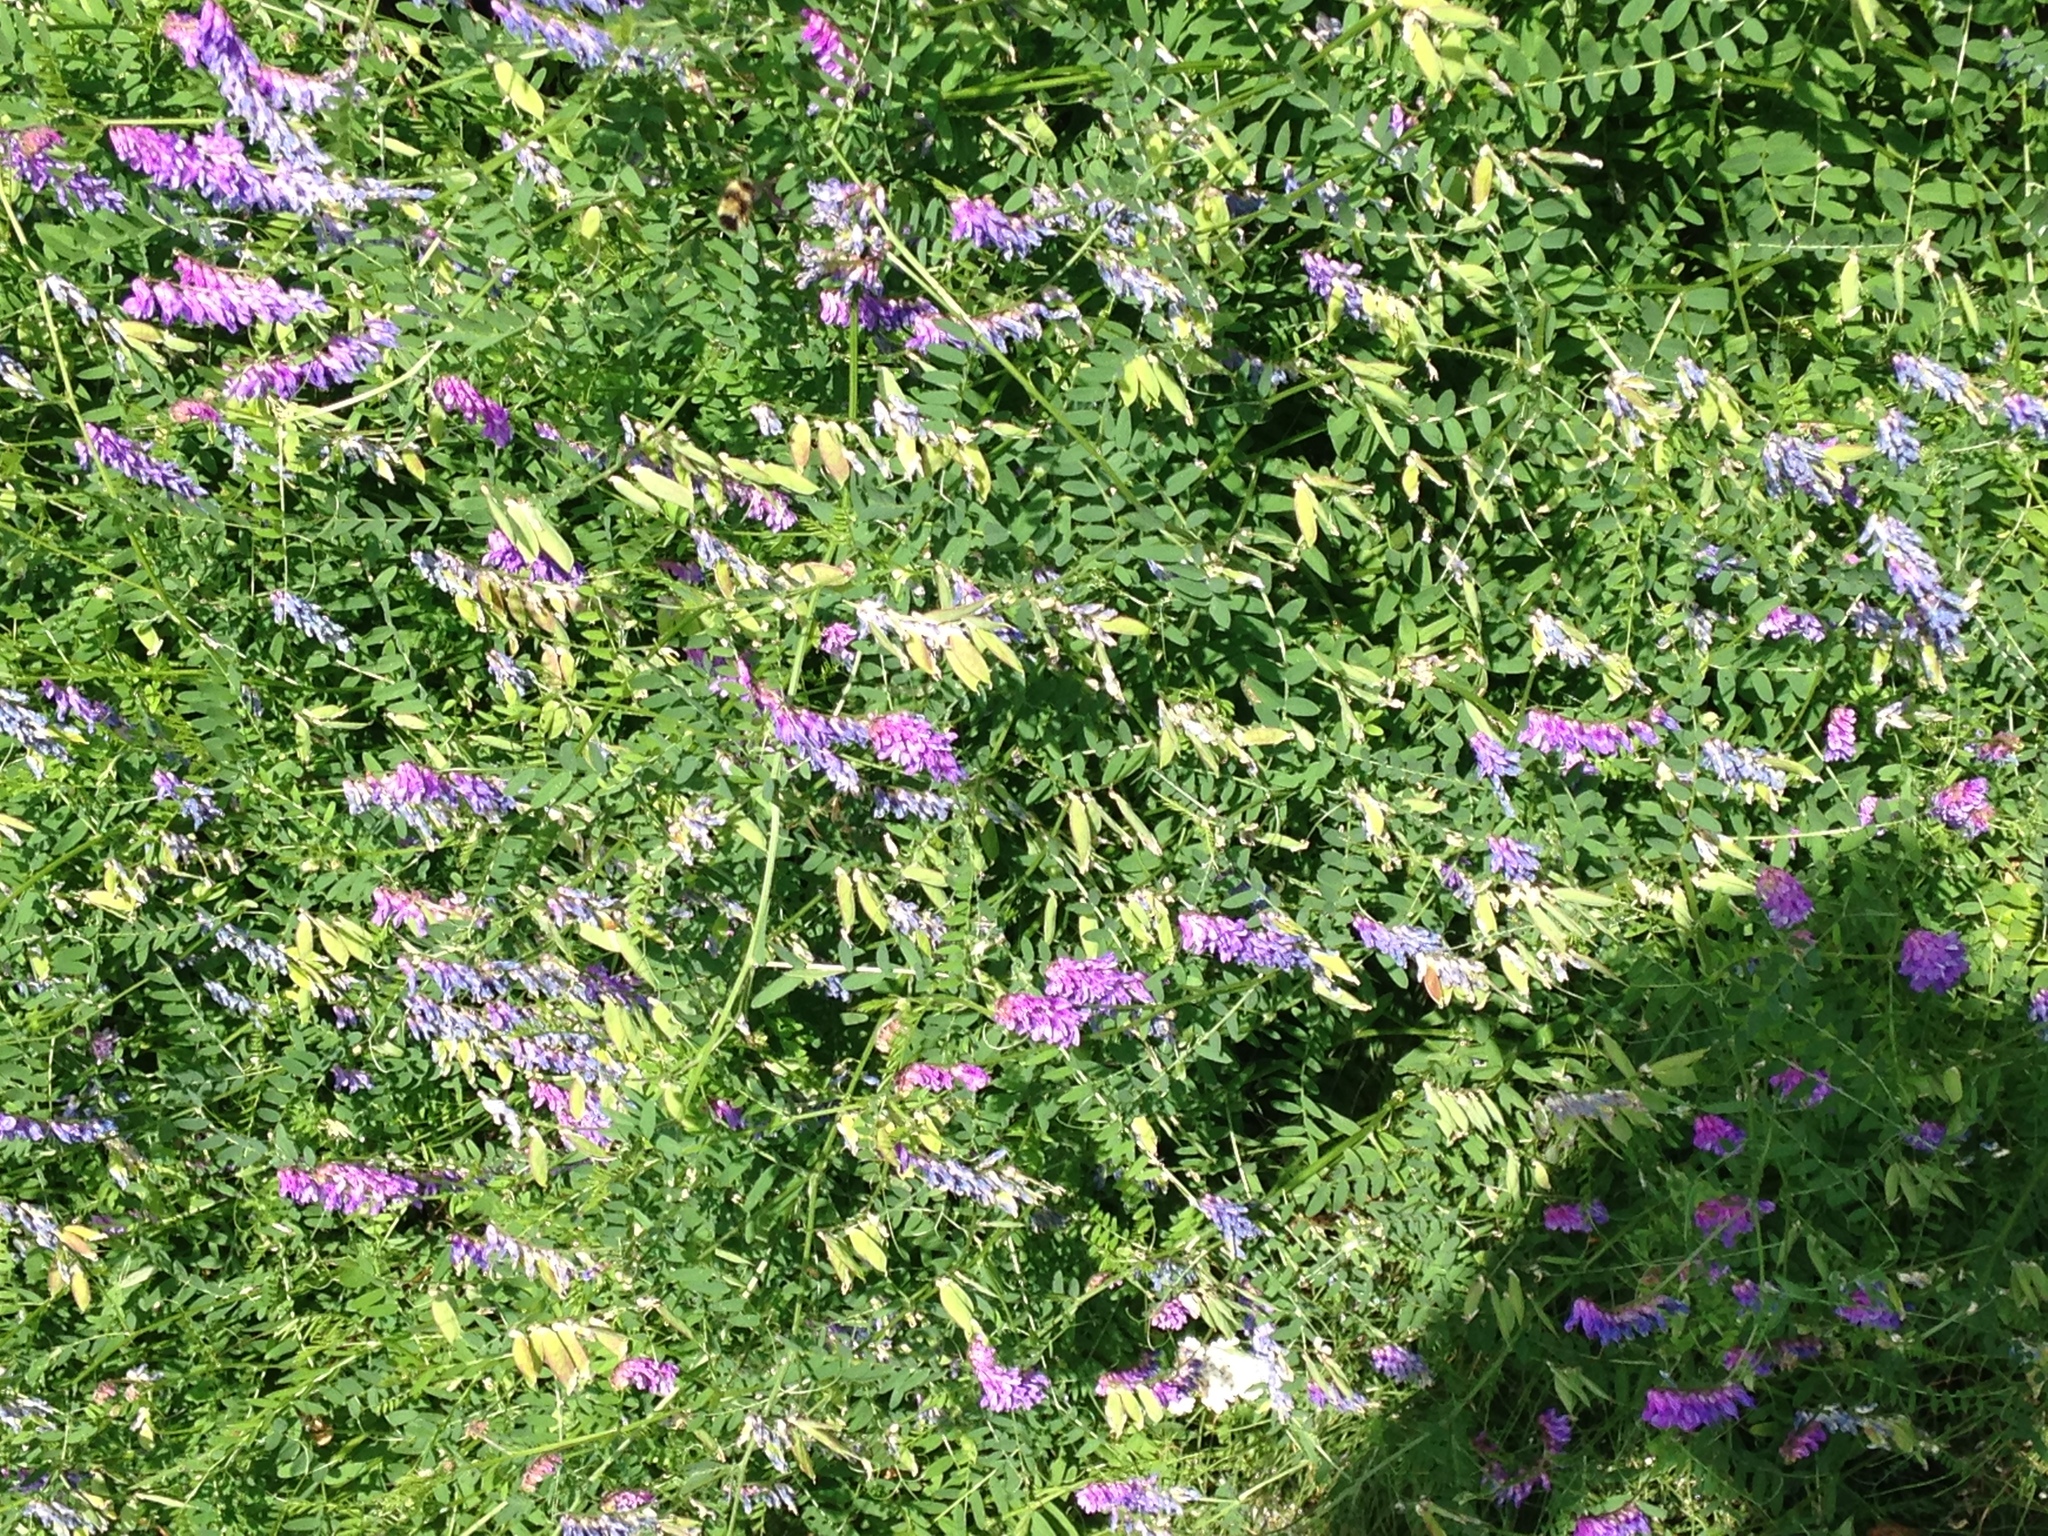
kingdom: Plantae
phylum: Tracheophyta
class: Magnoliopsida
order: Fabales
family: Fabaceae
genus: Vicia
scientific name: Vicia cracca
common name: Bird vetch
